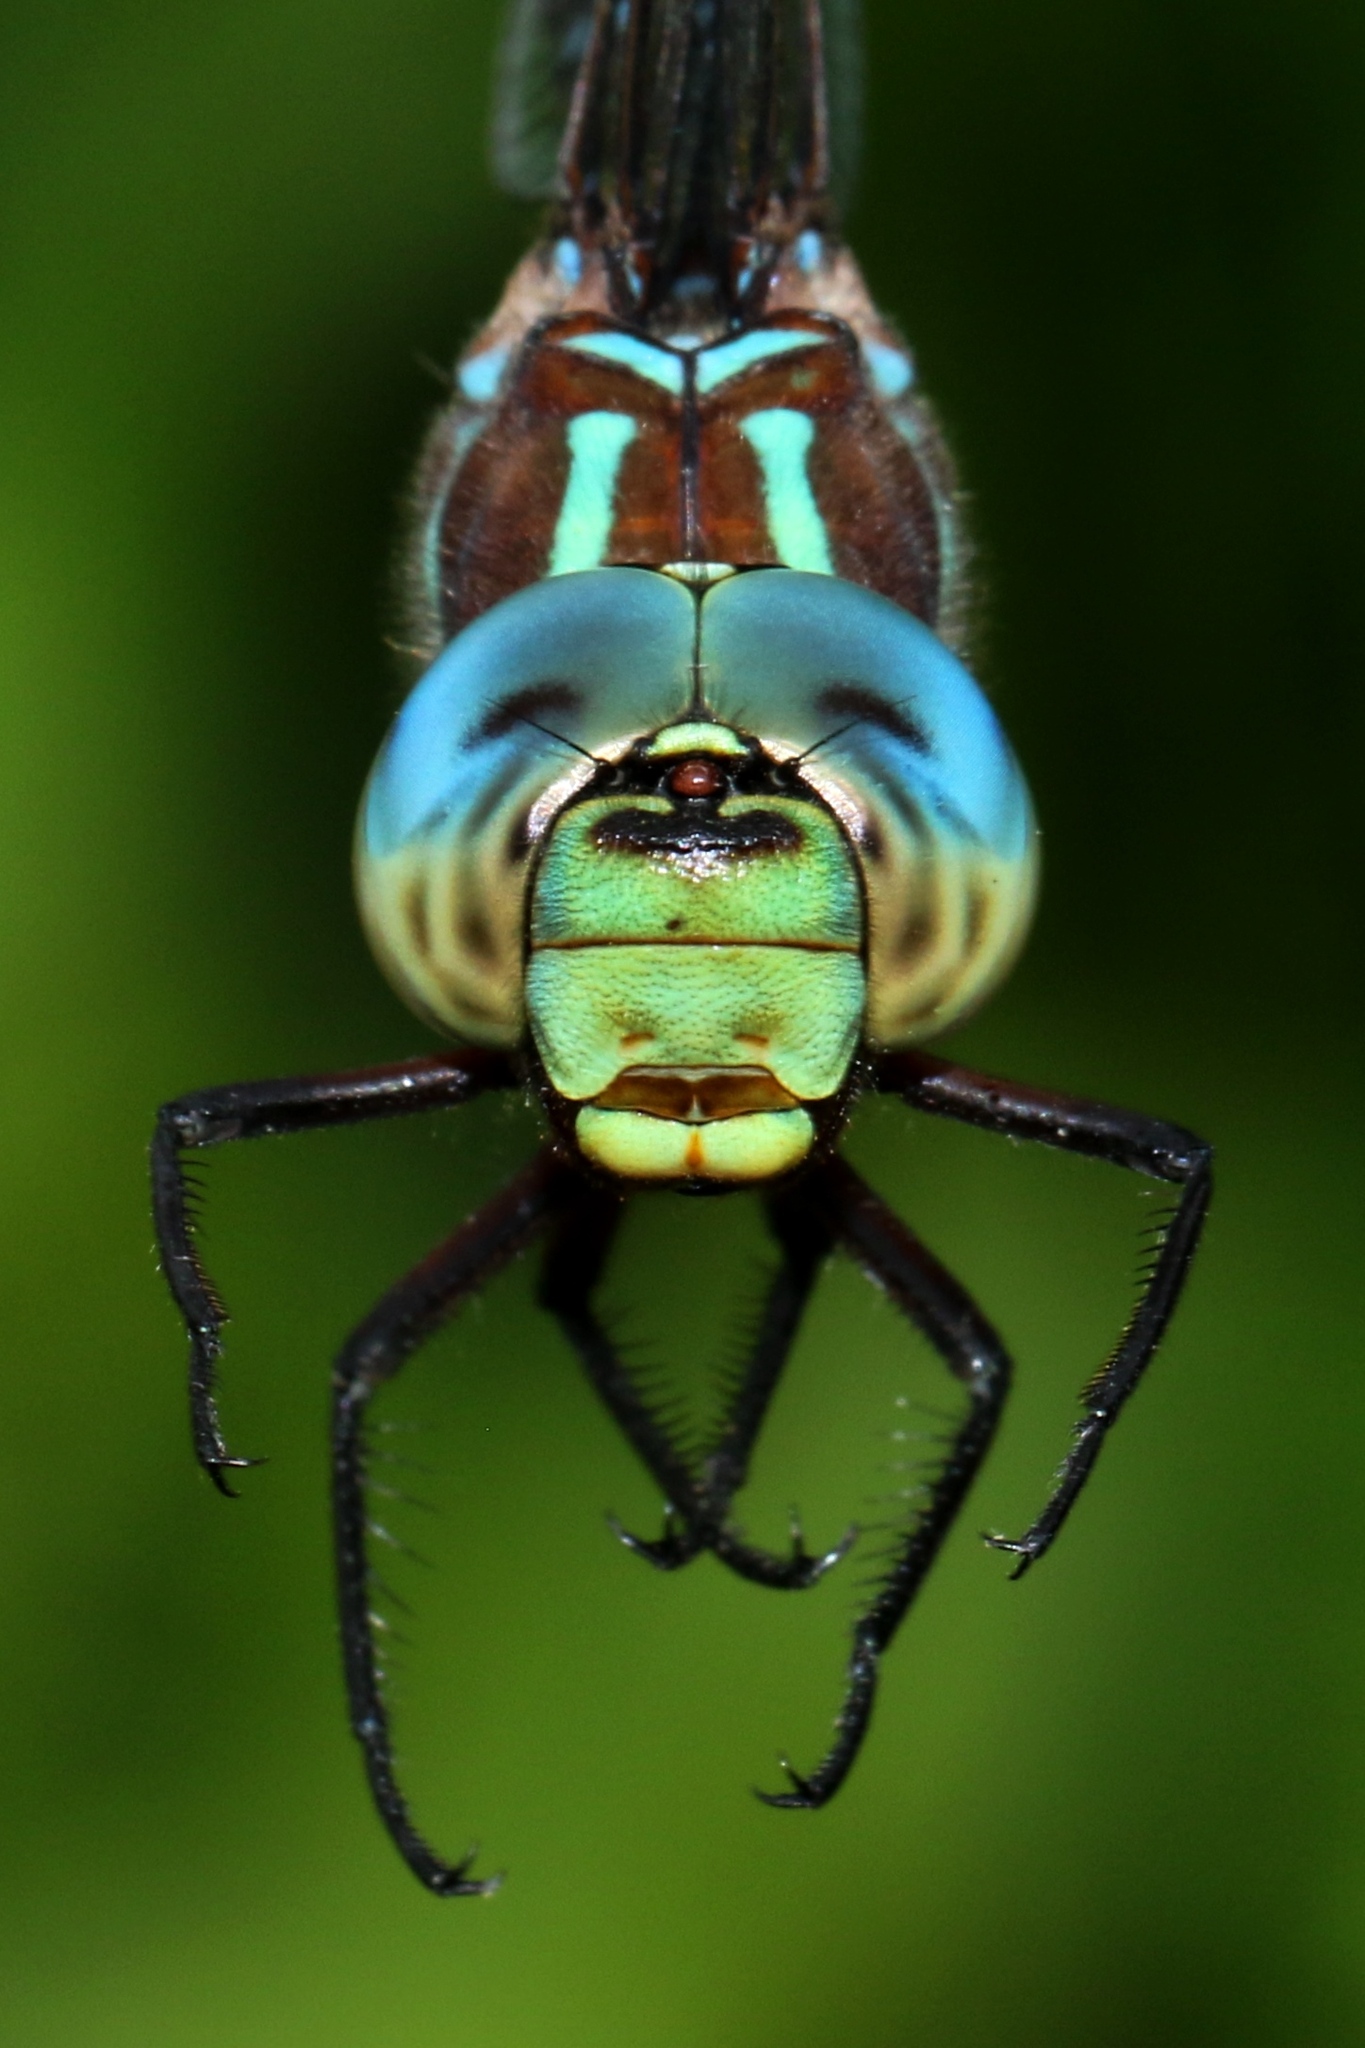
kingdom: Animalia
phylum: Arthropoda
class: Insecta
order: Odonata
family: Aeshnidae
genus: Aeshna
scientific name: Aeshna tuberculifera
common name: Aeschne à tubercules
